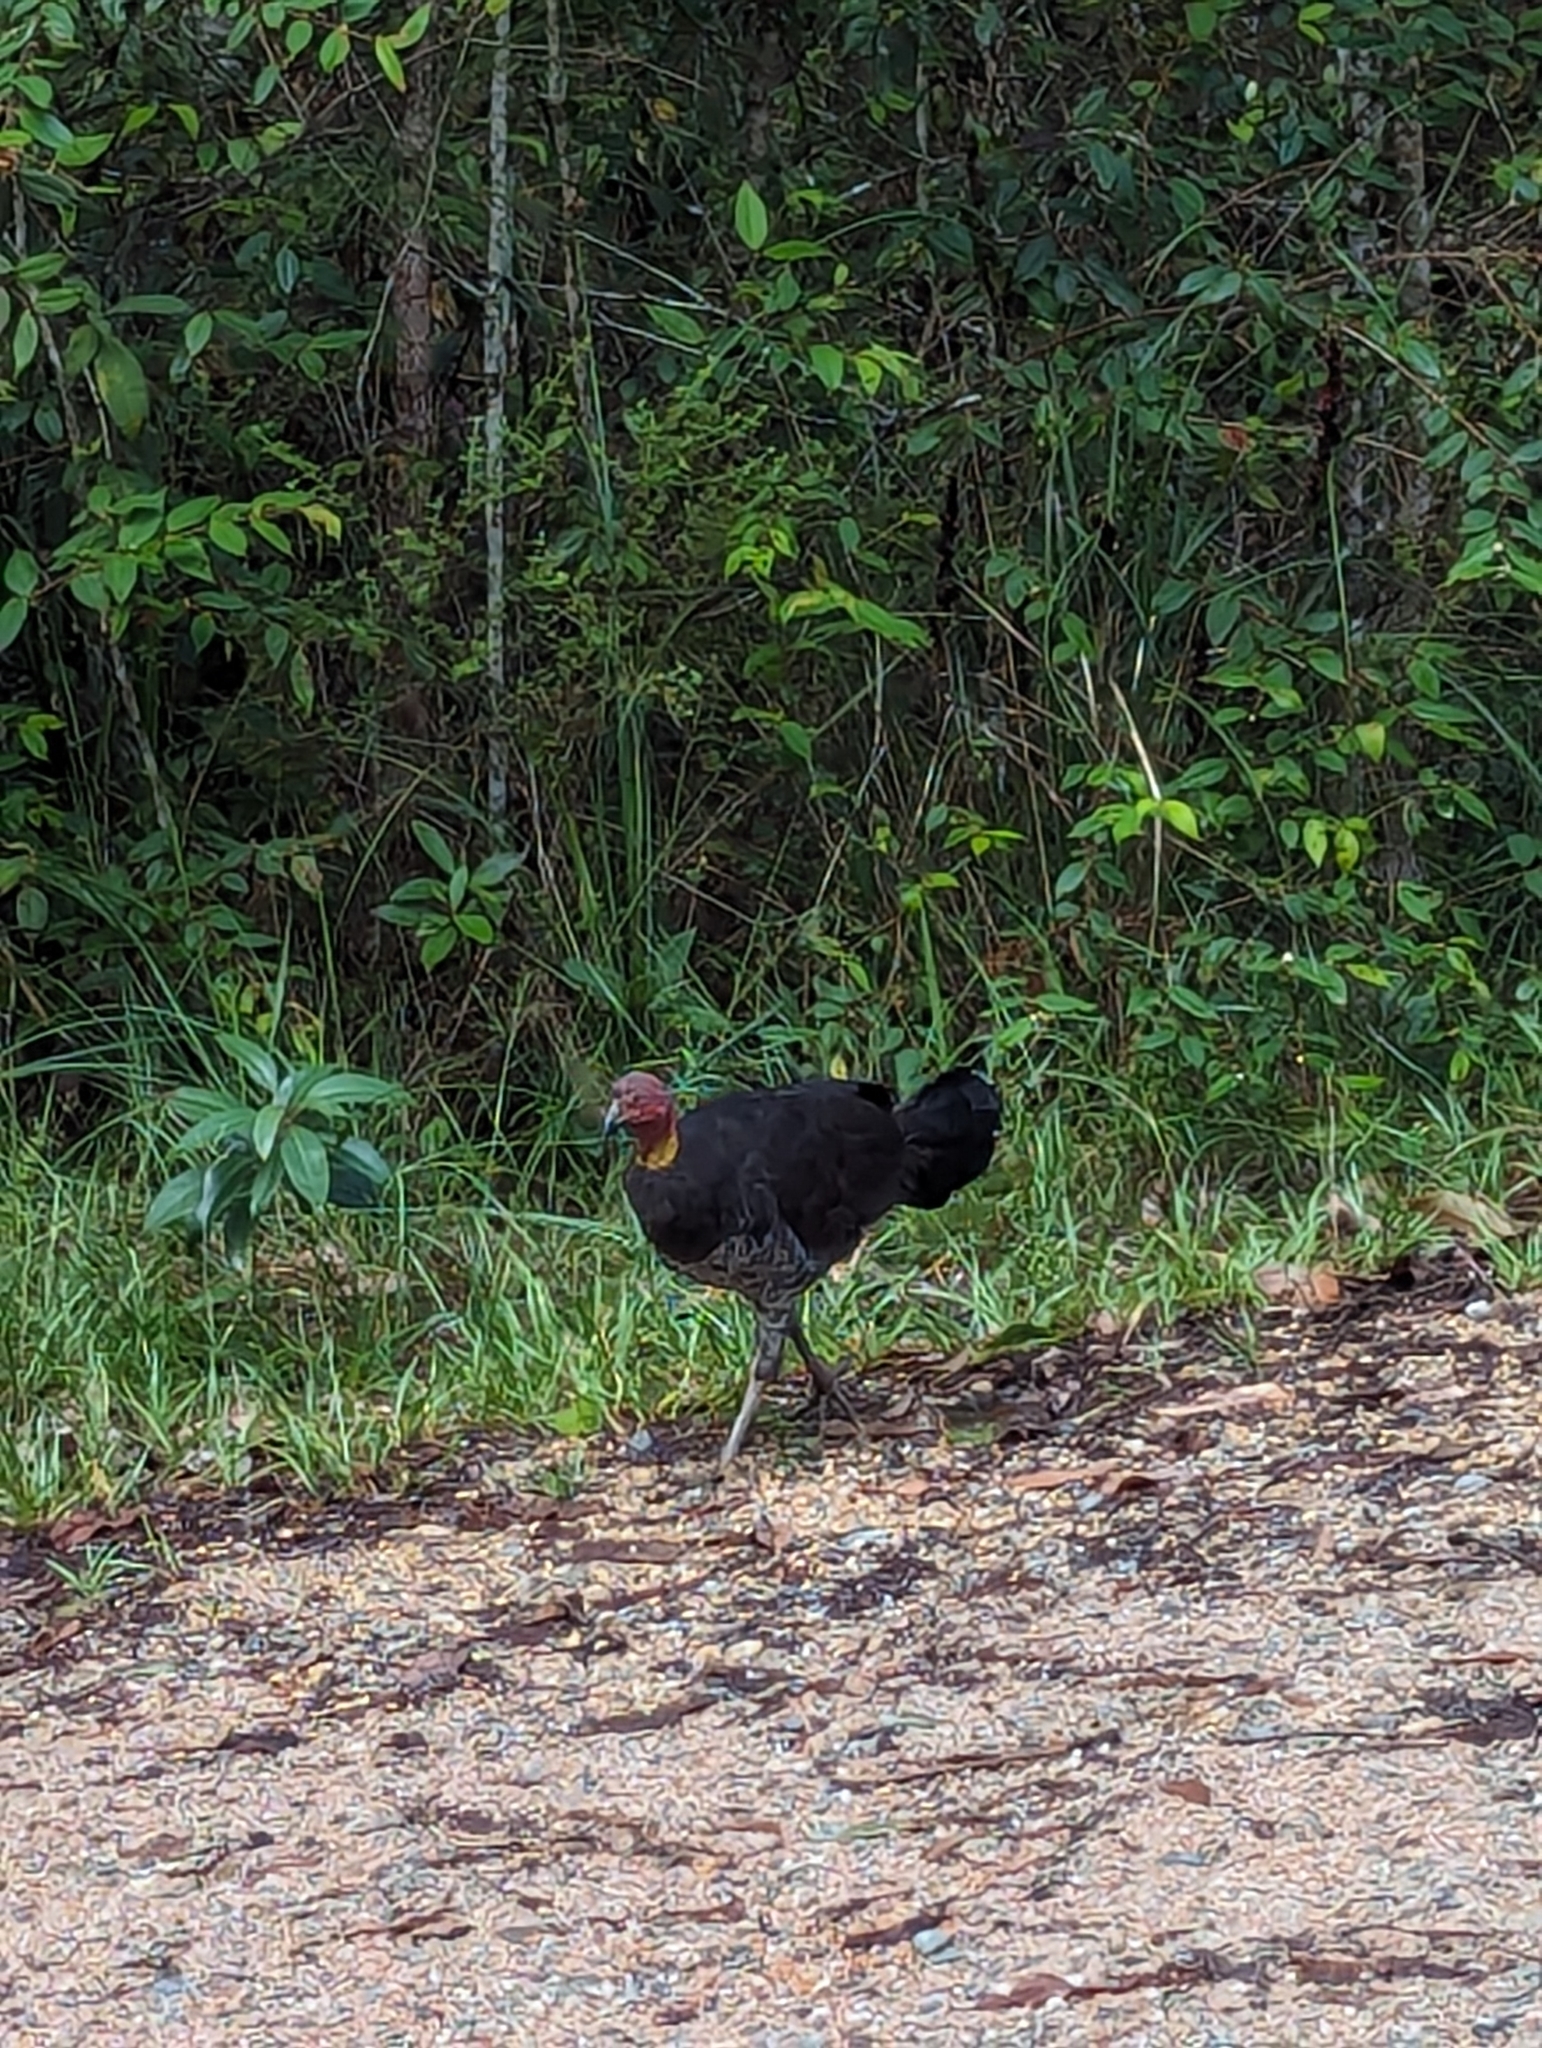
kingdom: Animalia
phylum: Chordata
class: Aves
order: Galliformes
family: Megapodiidae
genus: Alectura
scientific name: Alectura lathami
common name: Australian brushturkey
